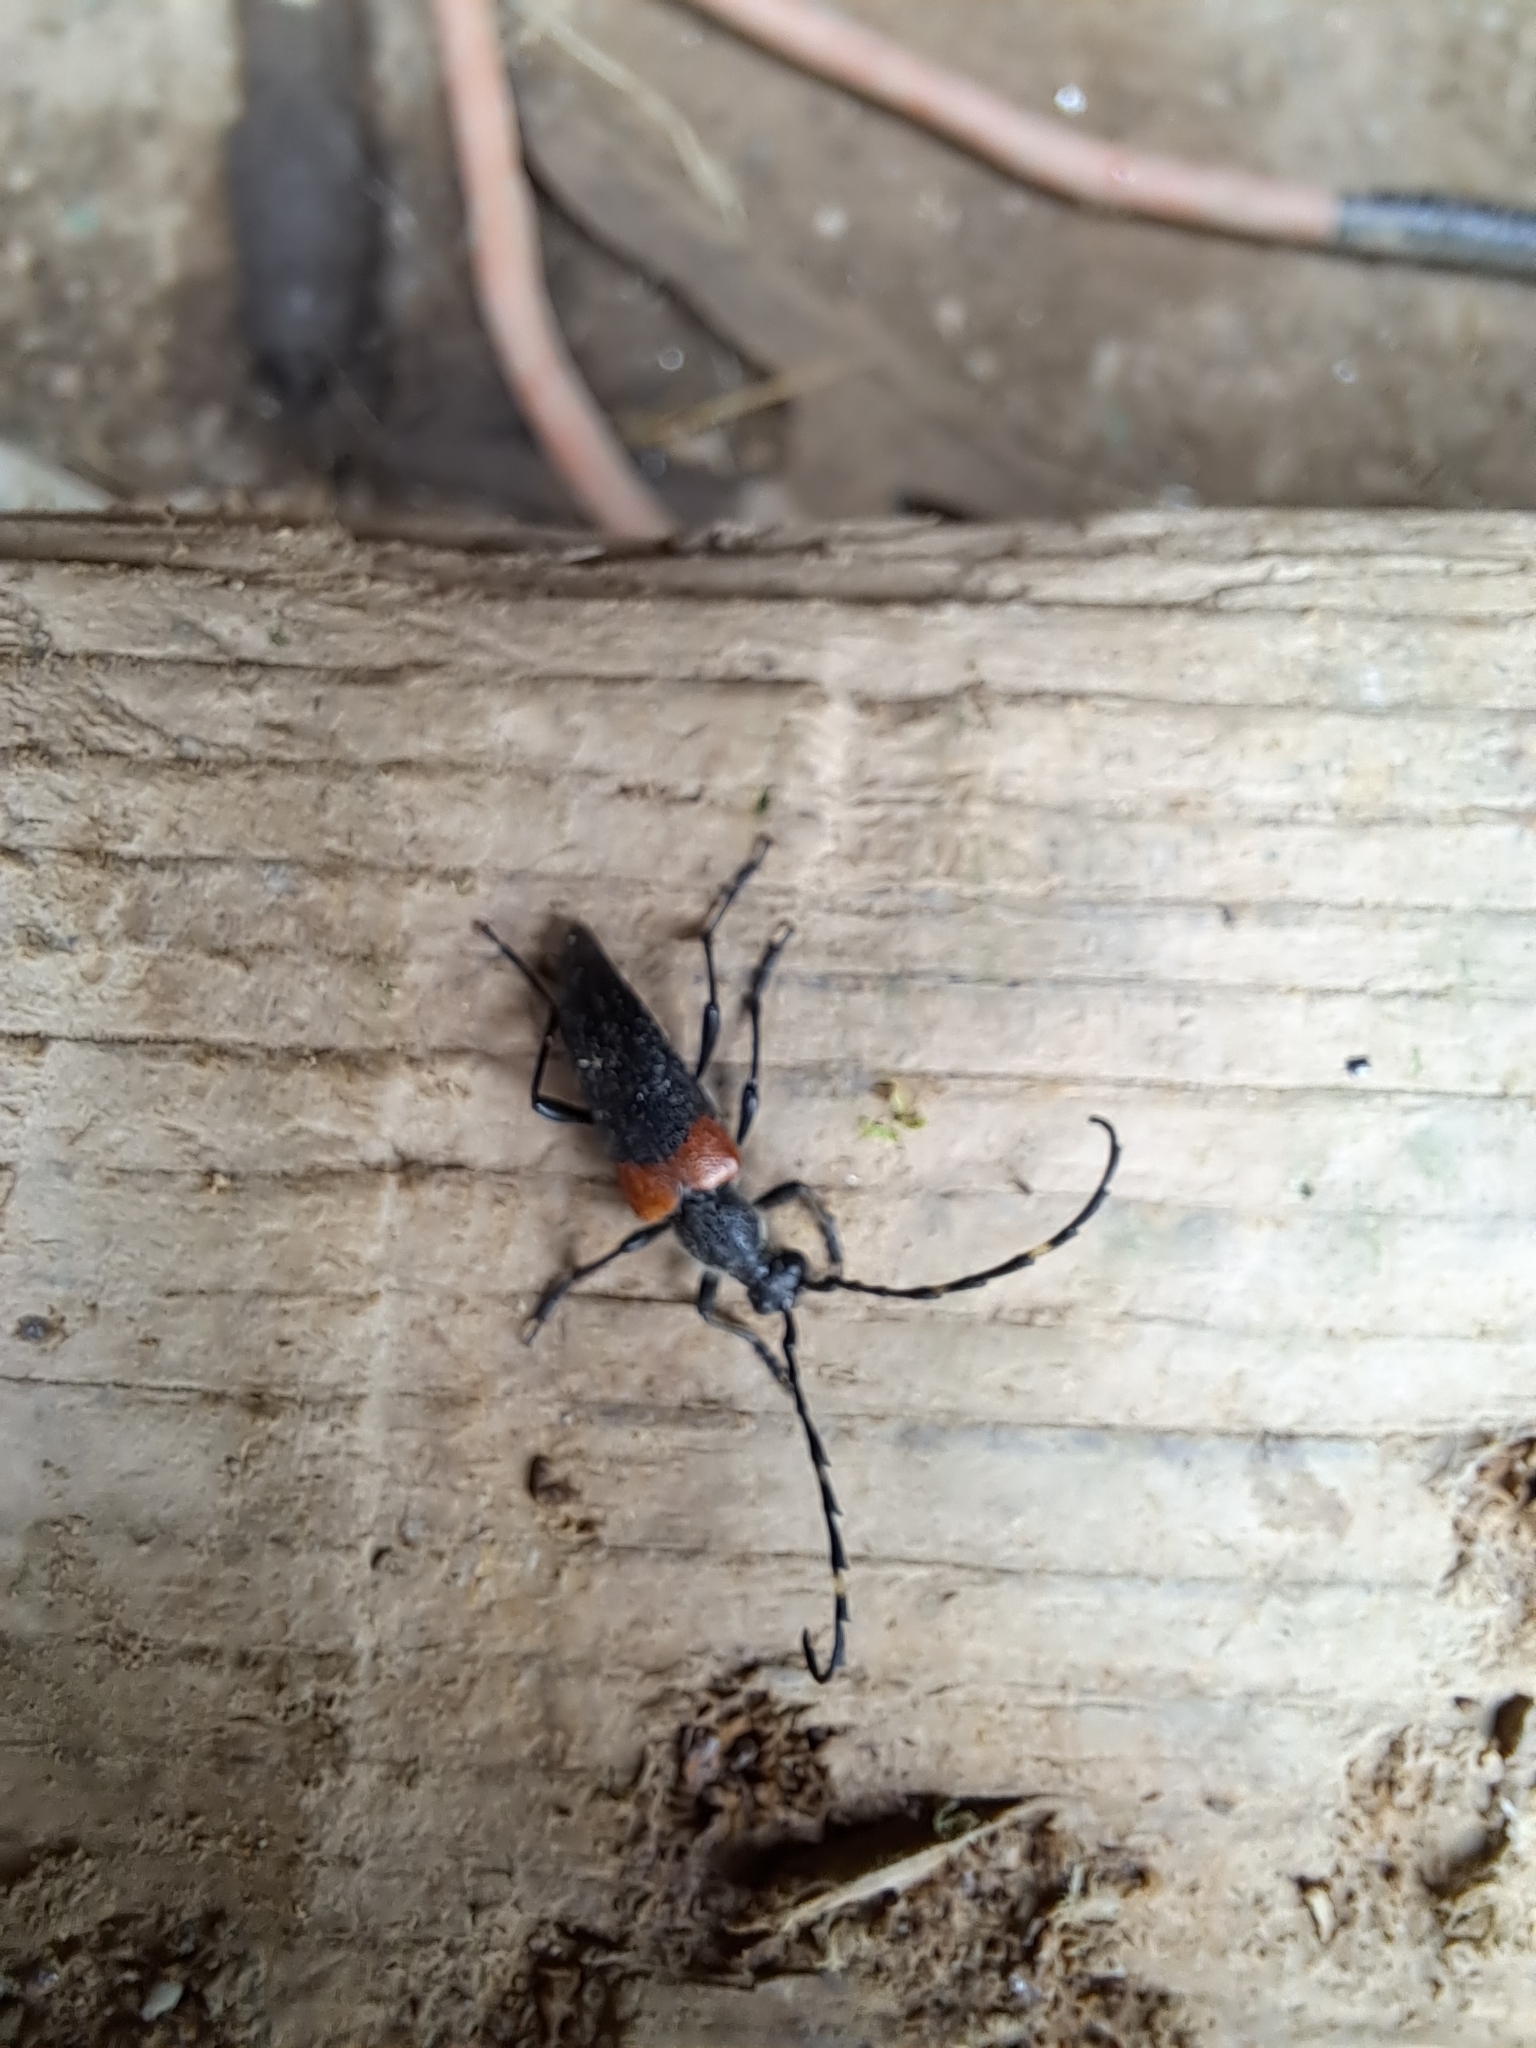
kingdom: Animalia
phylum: Arthropoda
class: Insecta
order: Coleoptera
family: Cerambycidae
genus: Stictoleptura
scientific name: Stictoleptura canadensis
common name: Red-shouldered pine borer
